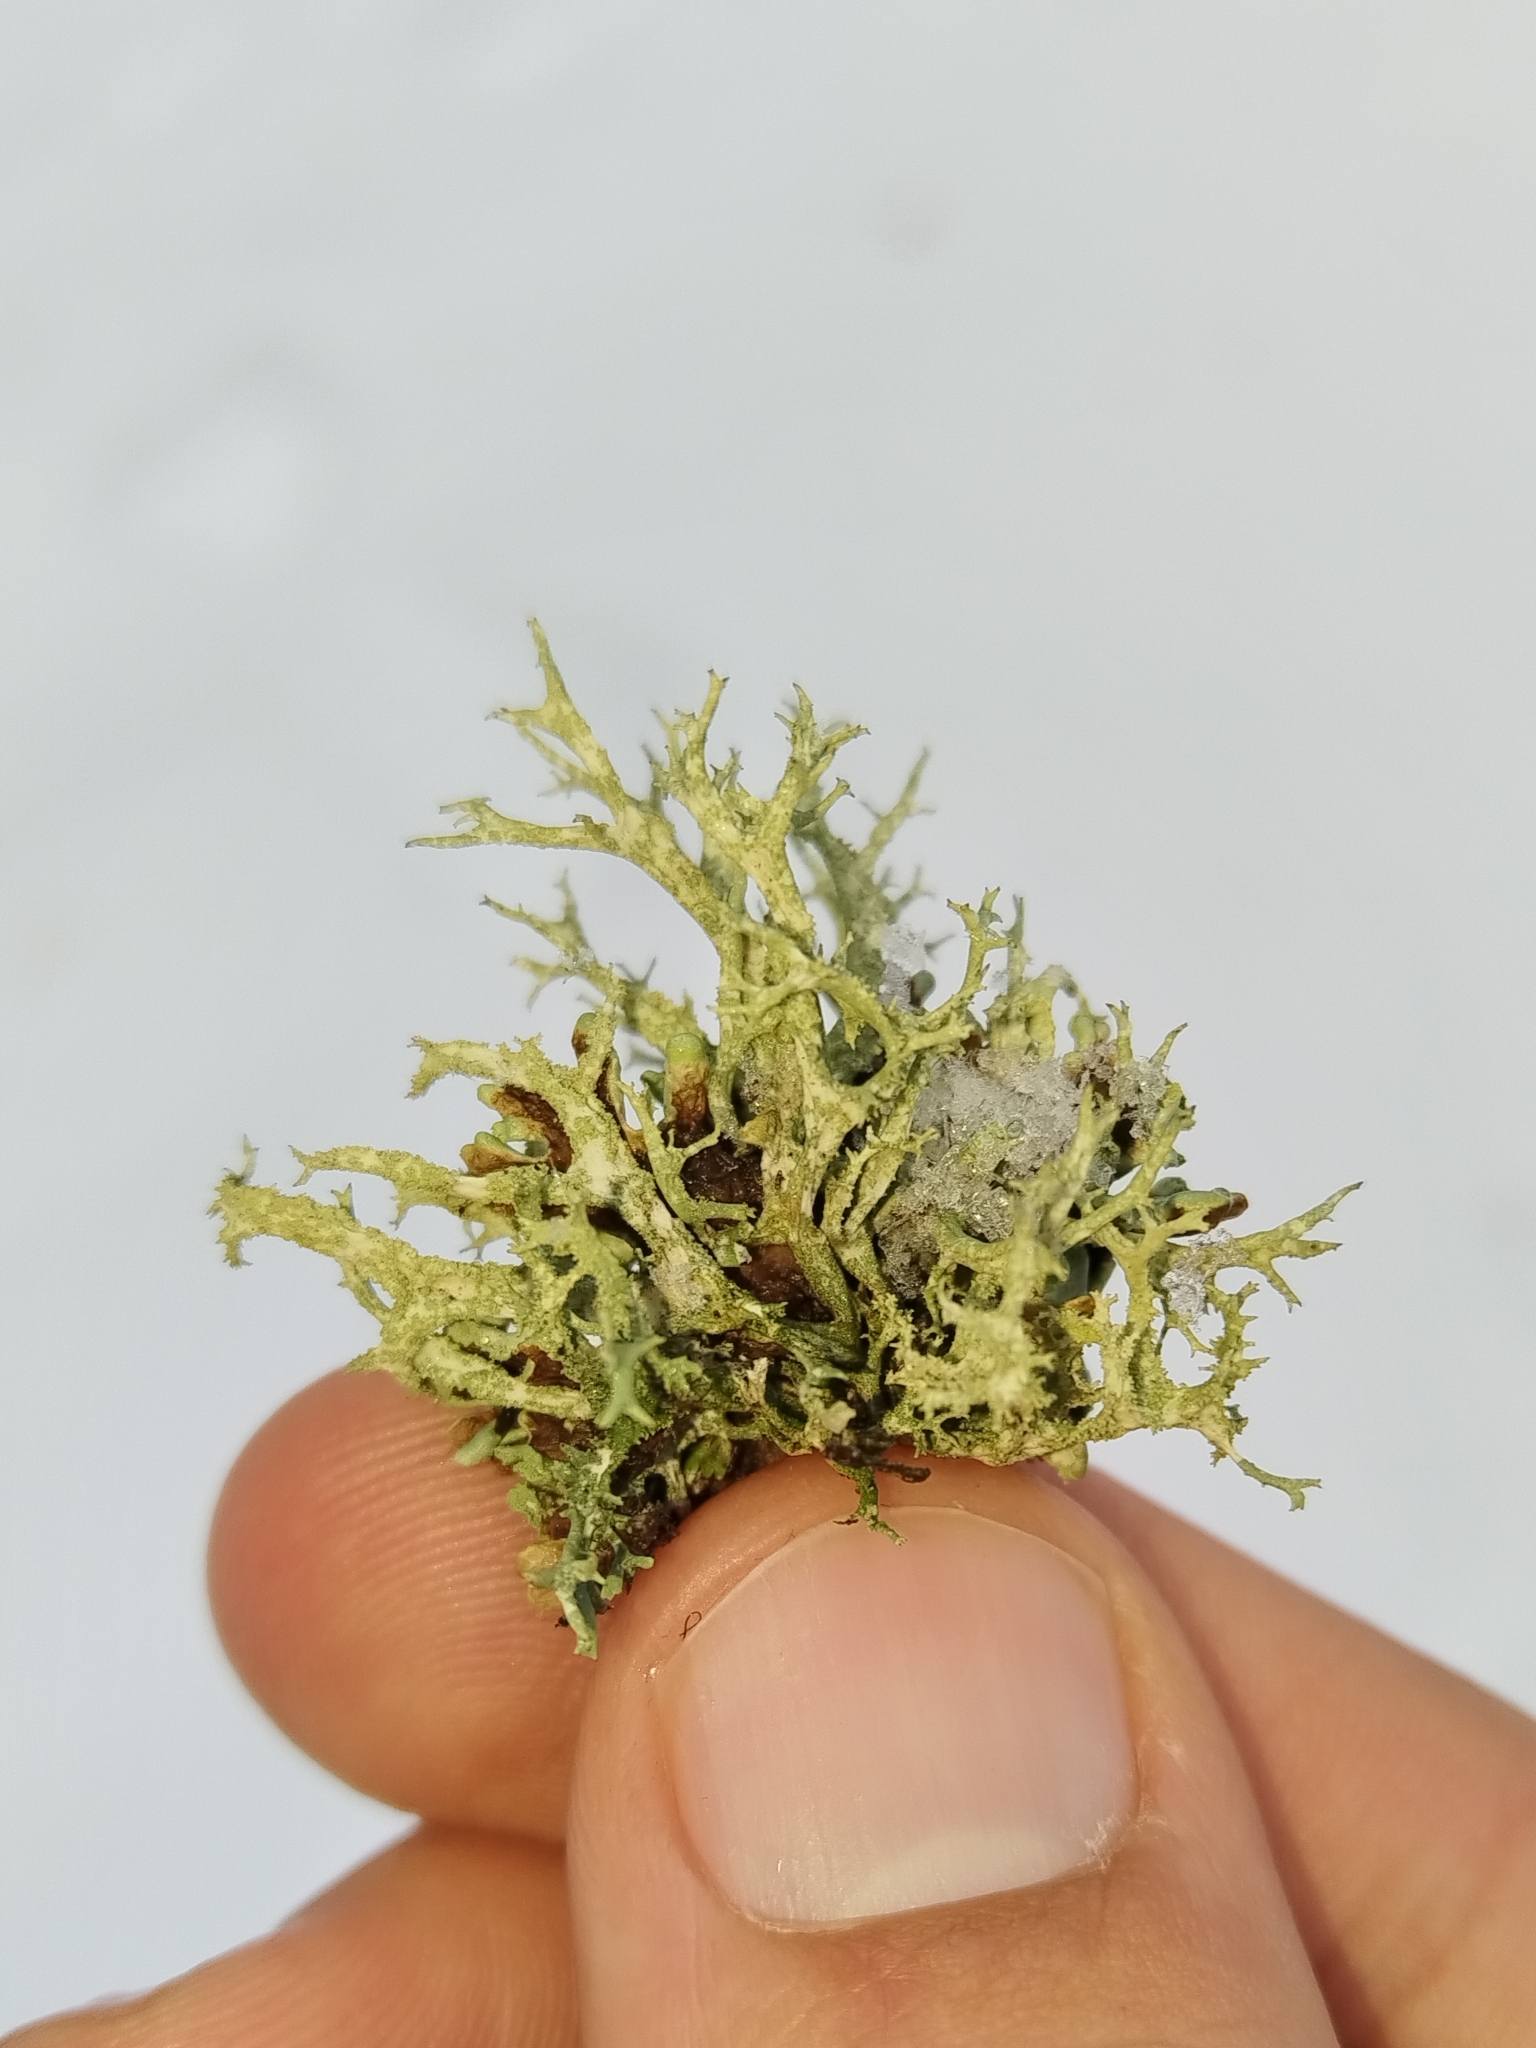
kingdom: Fungi
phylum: Ascomycota
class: Lecanoromycetes
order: Lecanorales
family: Parmeliaceae
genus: Evernia
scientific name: Evernia mesomorpha
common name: Boreal oak moss lichen
